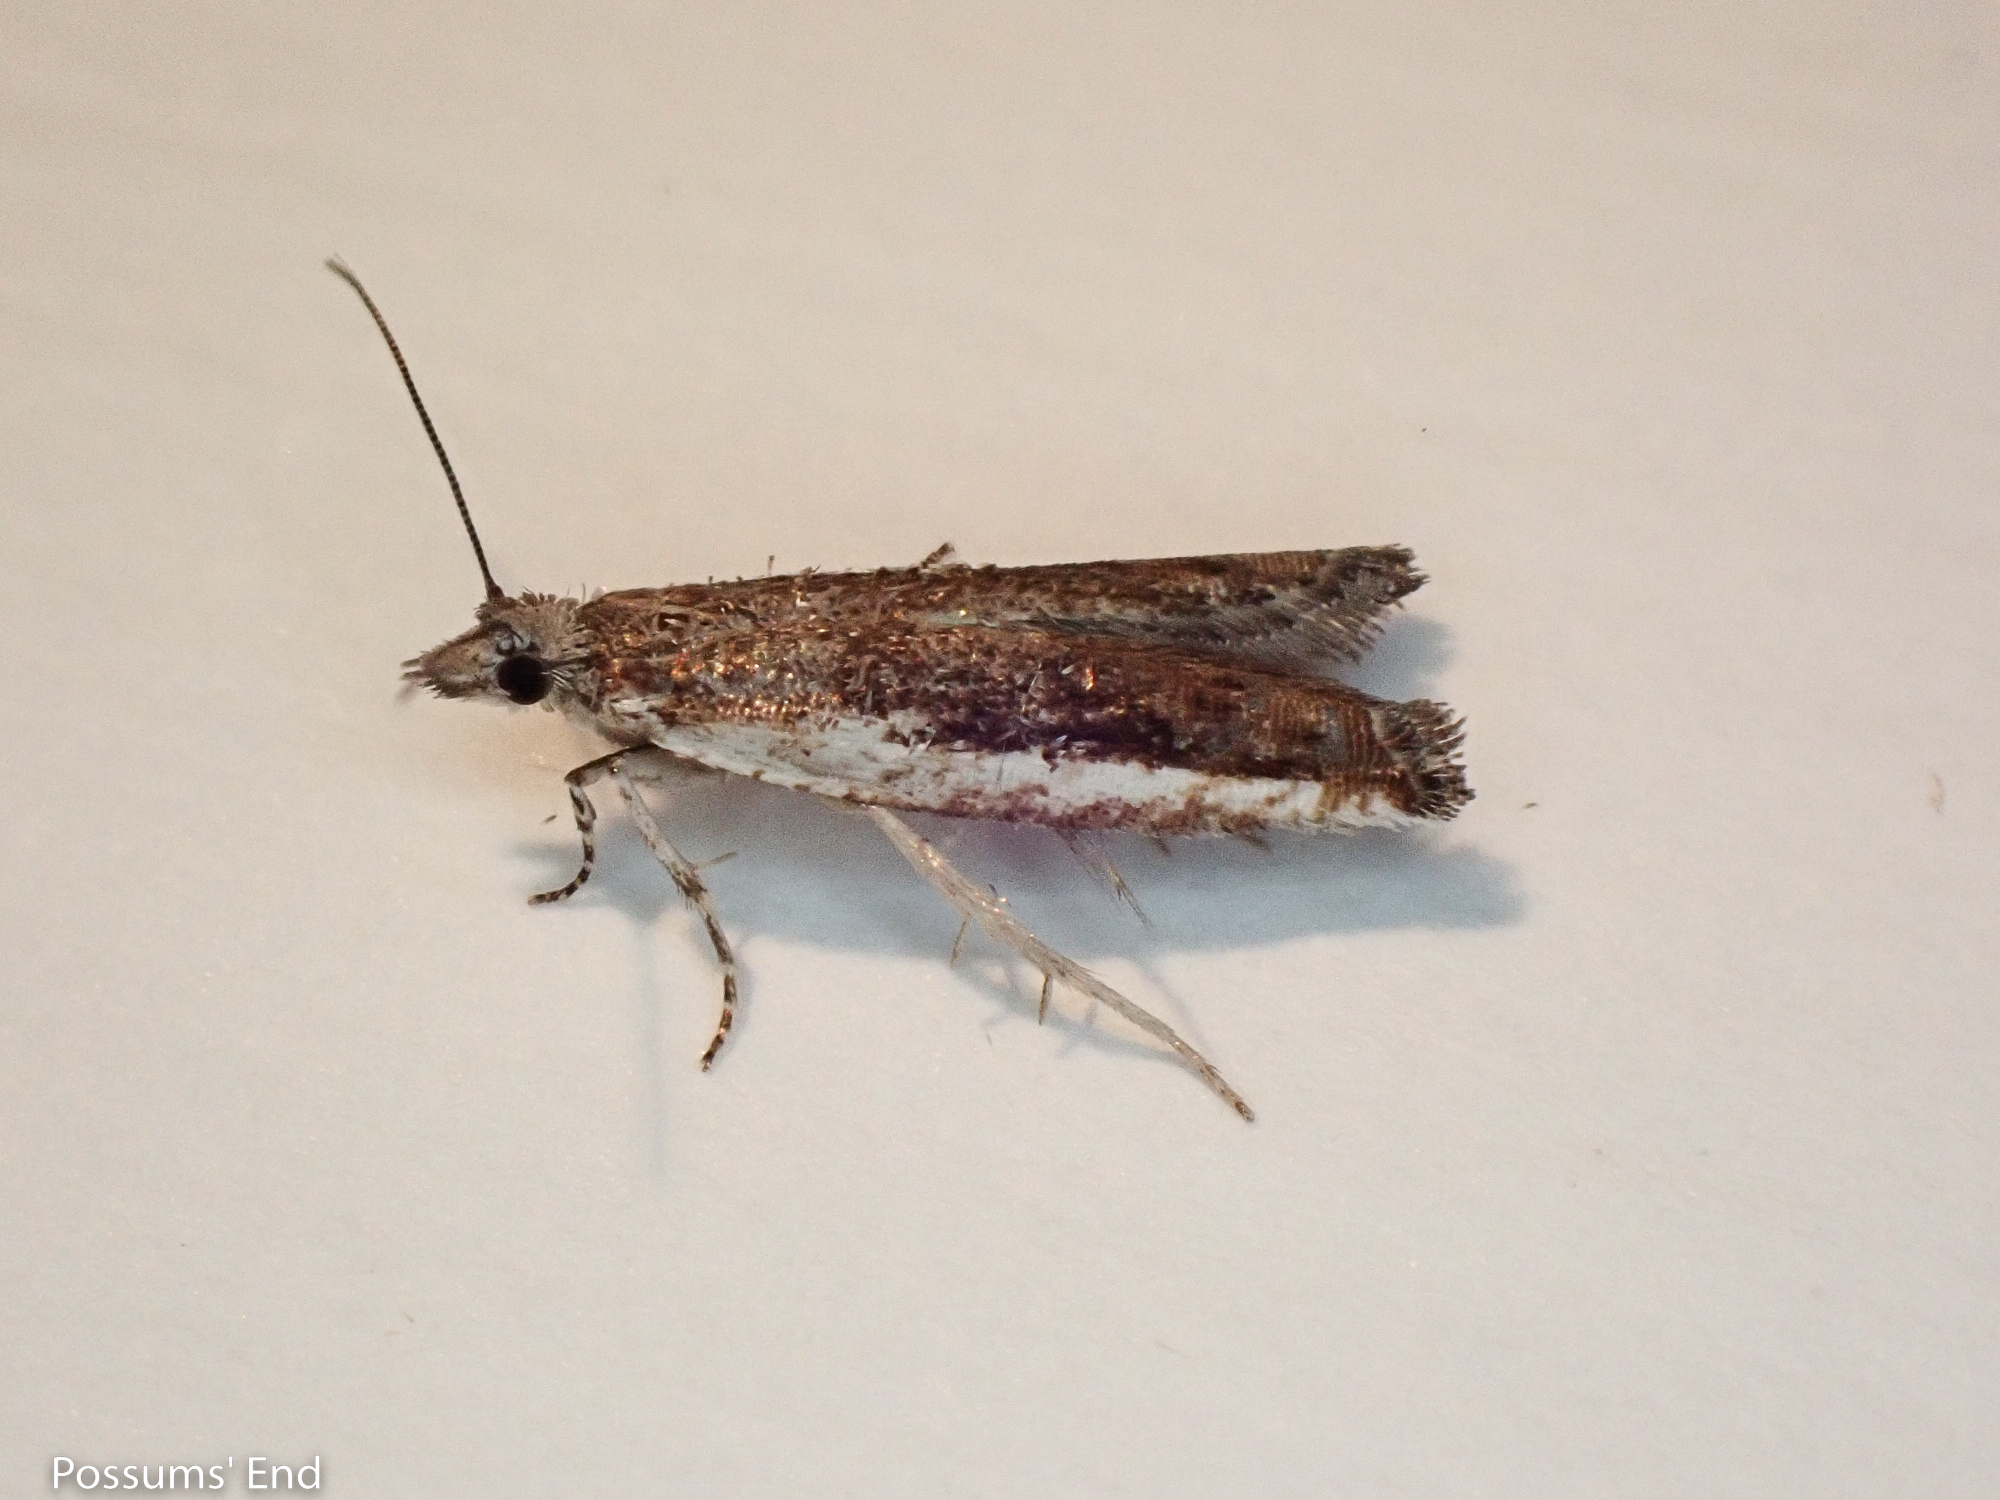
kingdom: Animalia
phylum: Arthropoda
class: Insecta
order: Lepidoptera
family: Tortricidae
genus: Holocola
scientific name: Holocola
